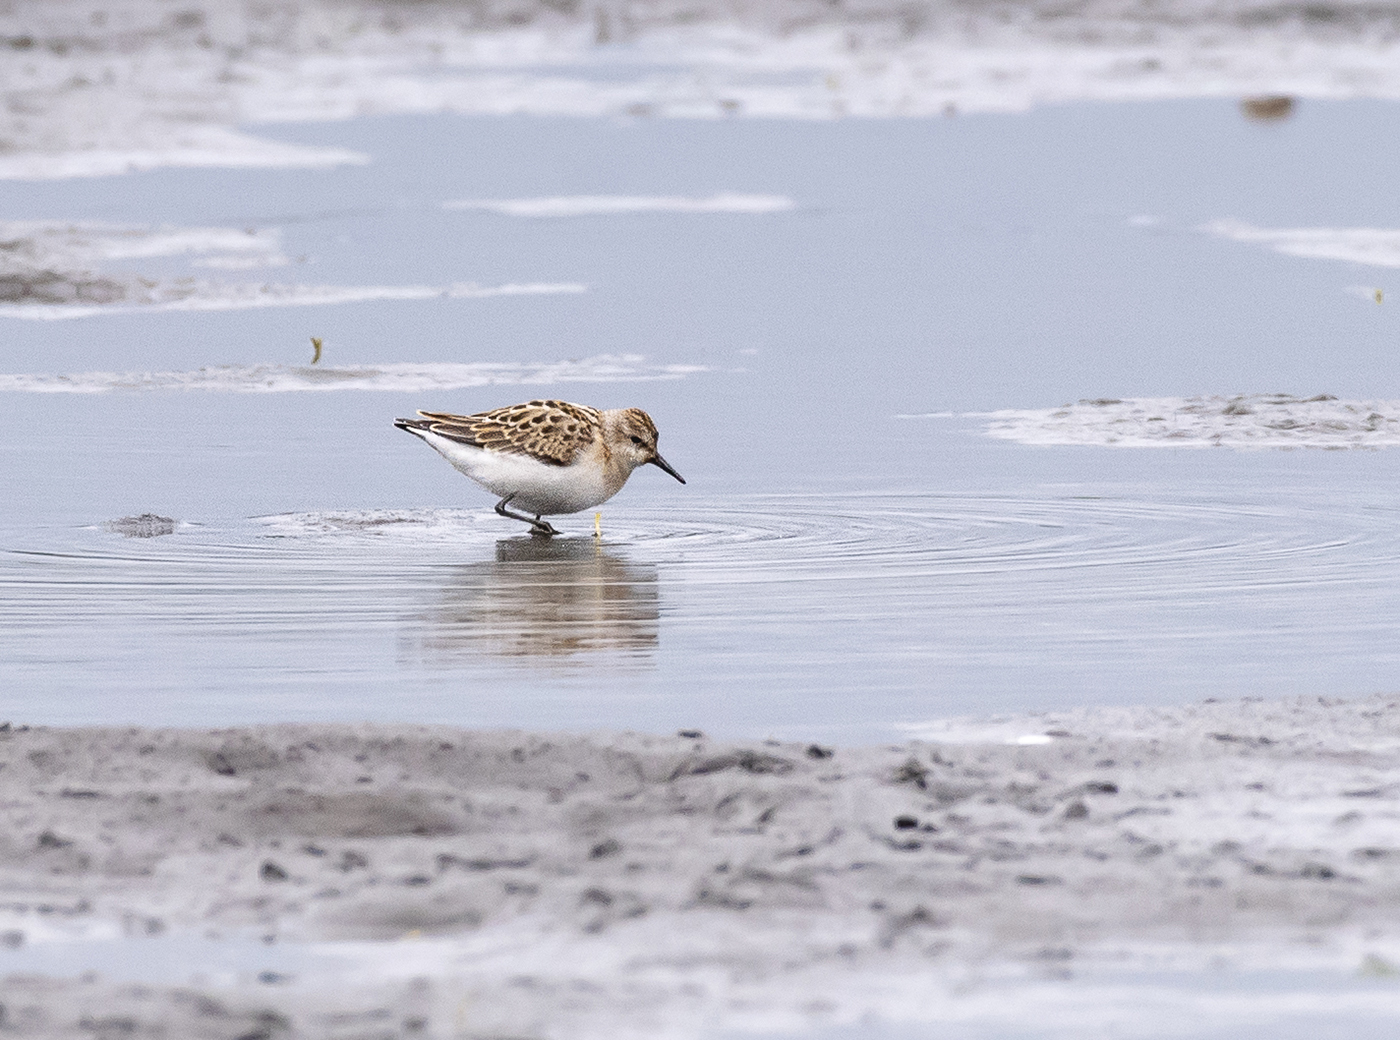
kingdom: Animalia
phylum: Chordata
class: Aves
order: Charadriiformes
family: Scolopacidae
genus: Calidris
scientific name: Calidris minuta
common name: Little stint
